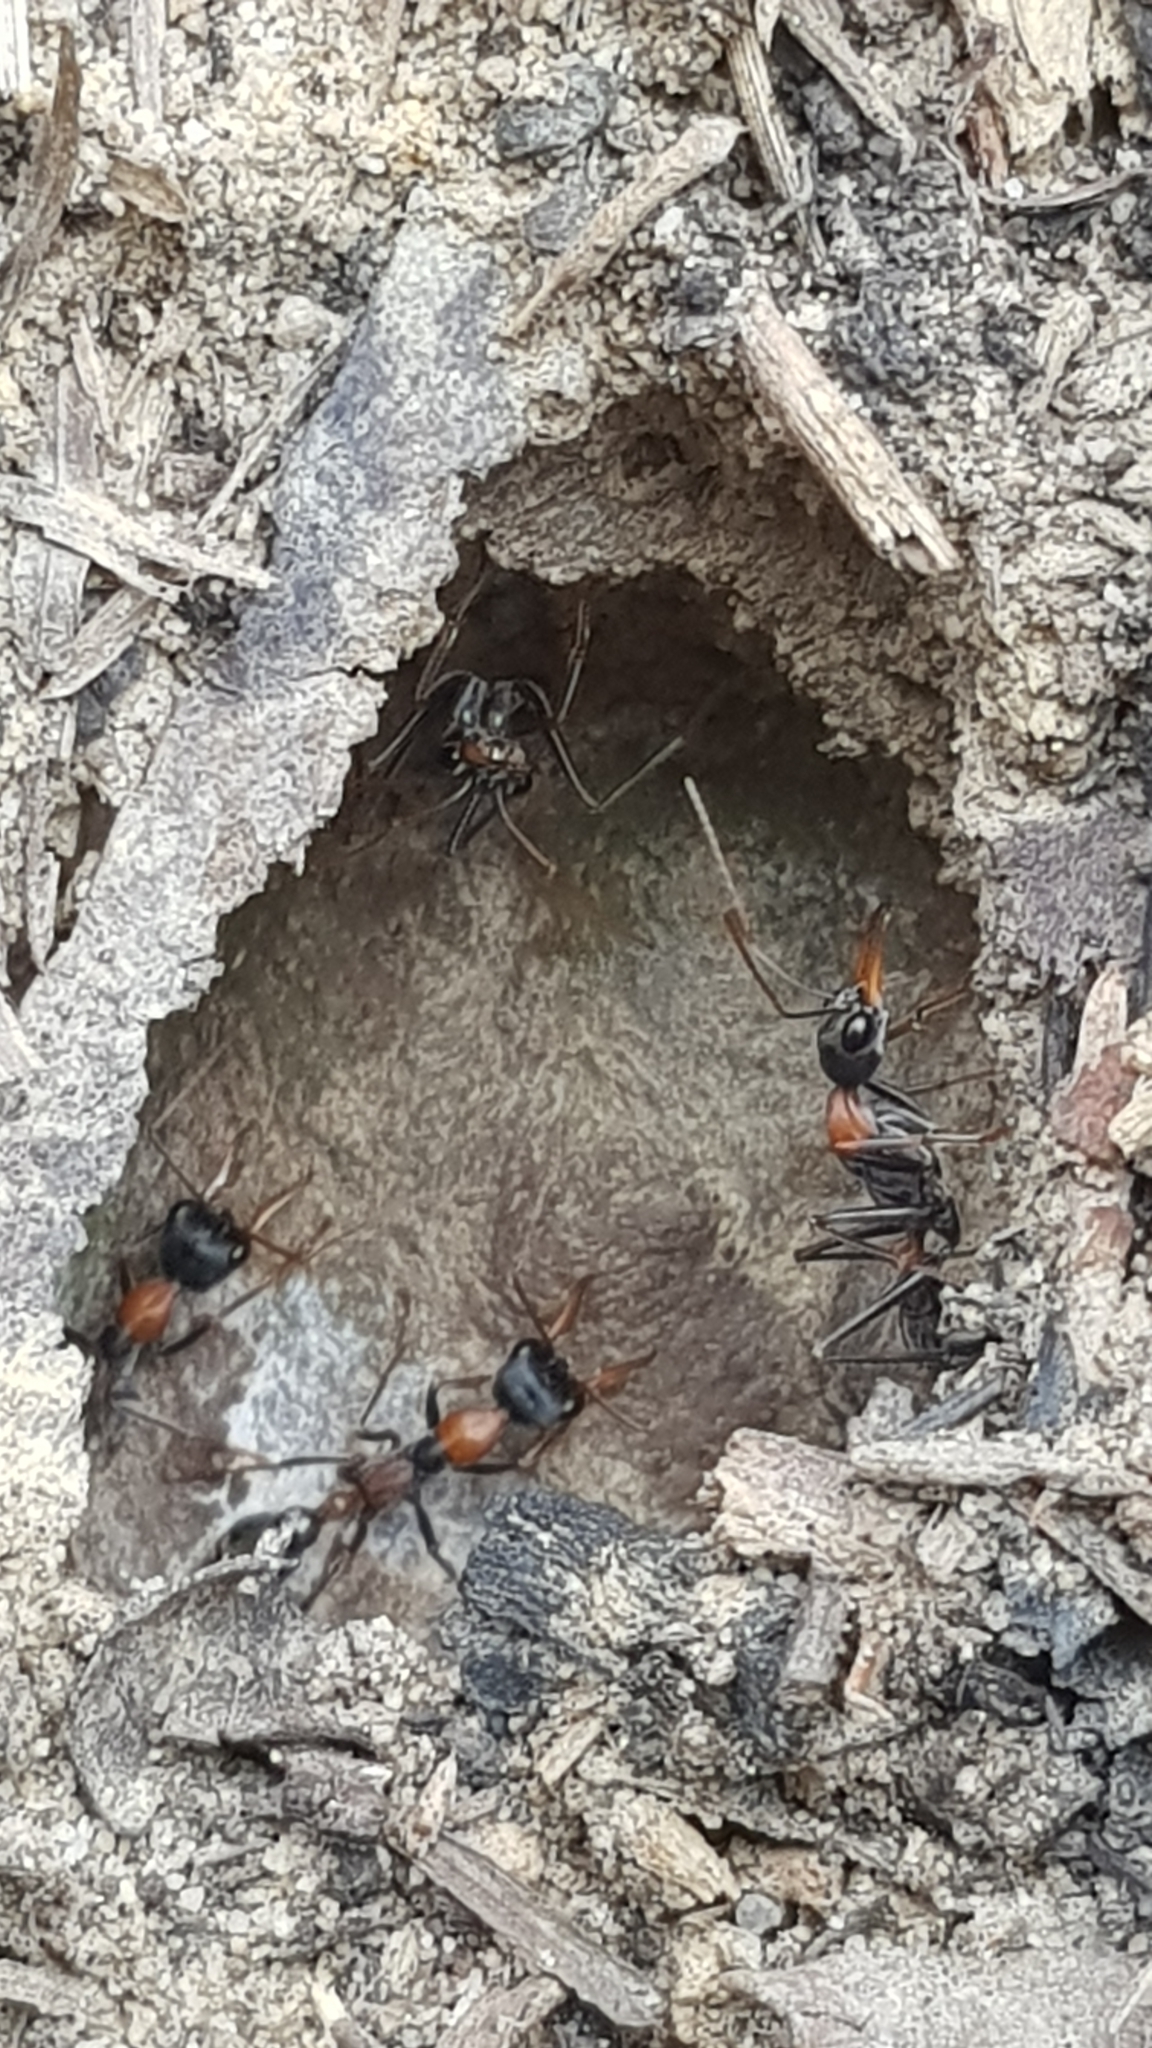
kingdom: Animalia
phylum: Arthropoda
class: Insecta
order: Hymenoptera
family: Formicidae
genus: Myrmecia
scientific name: Myrmecia nigrocincta
